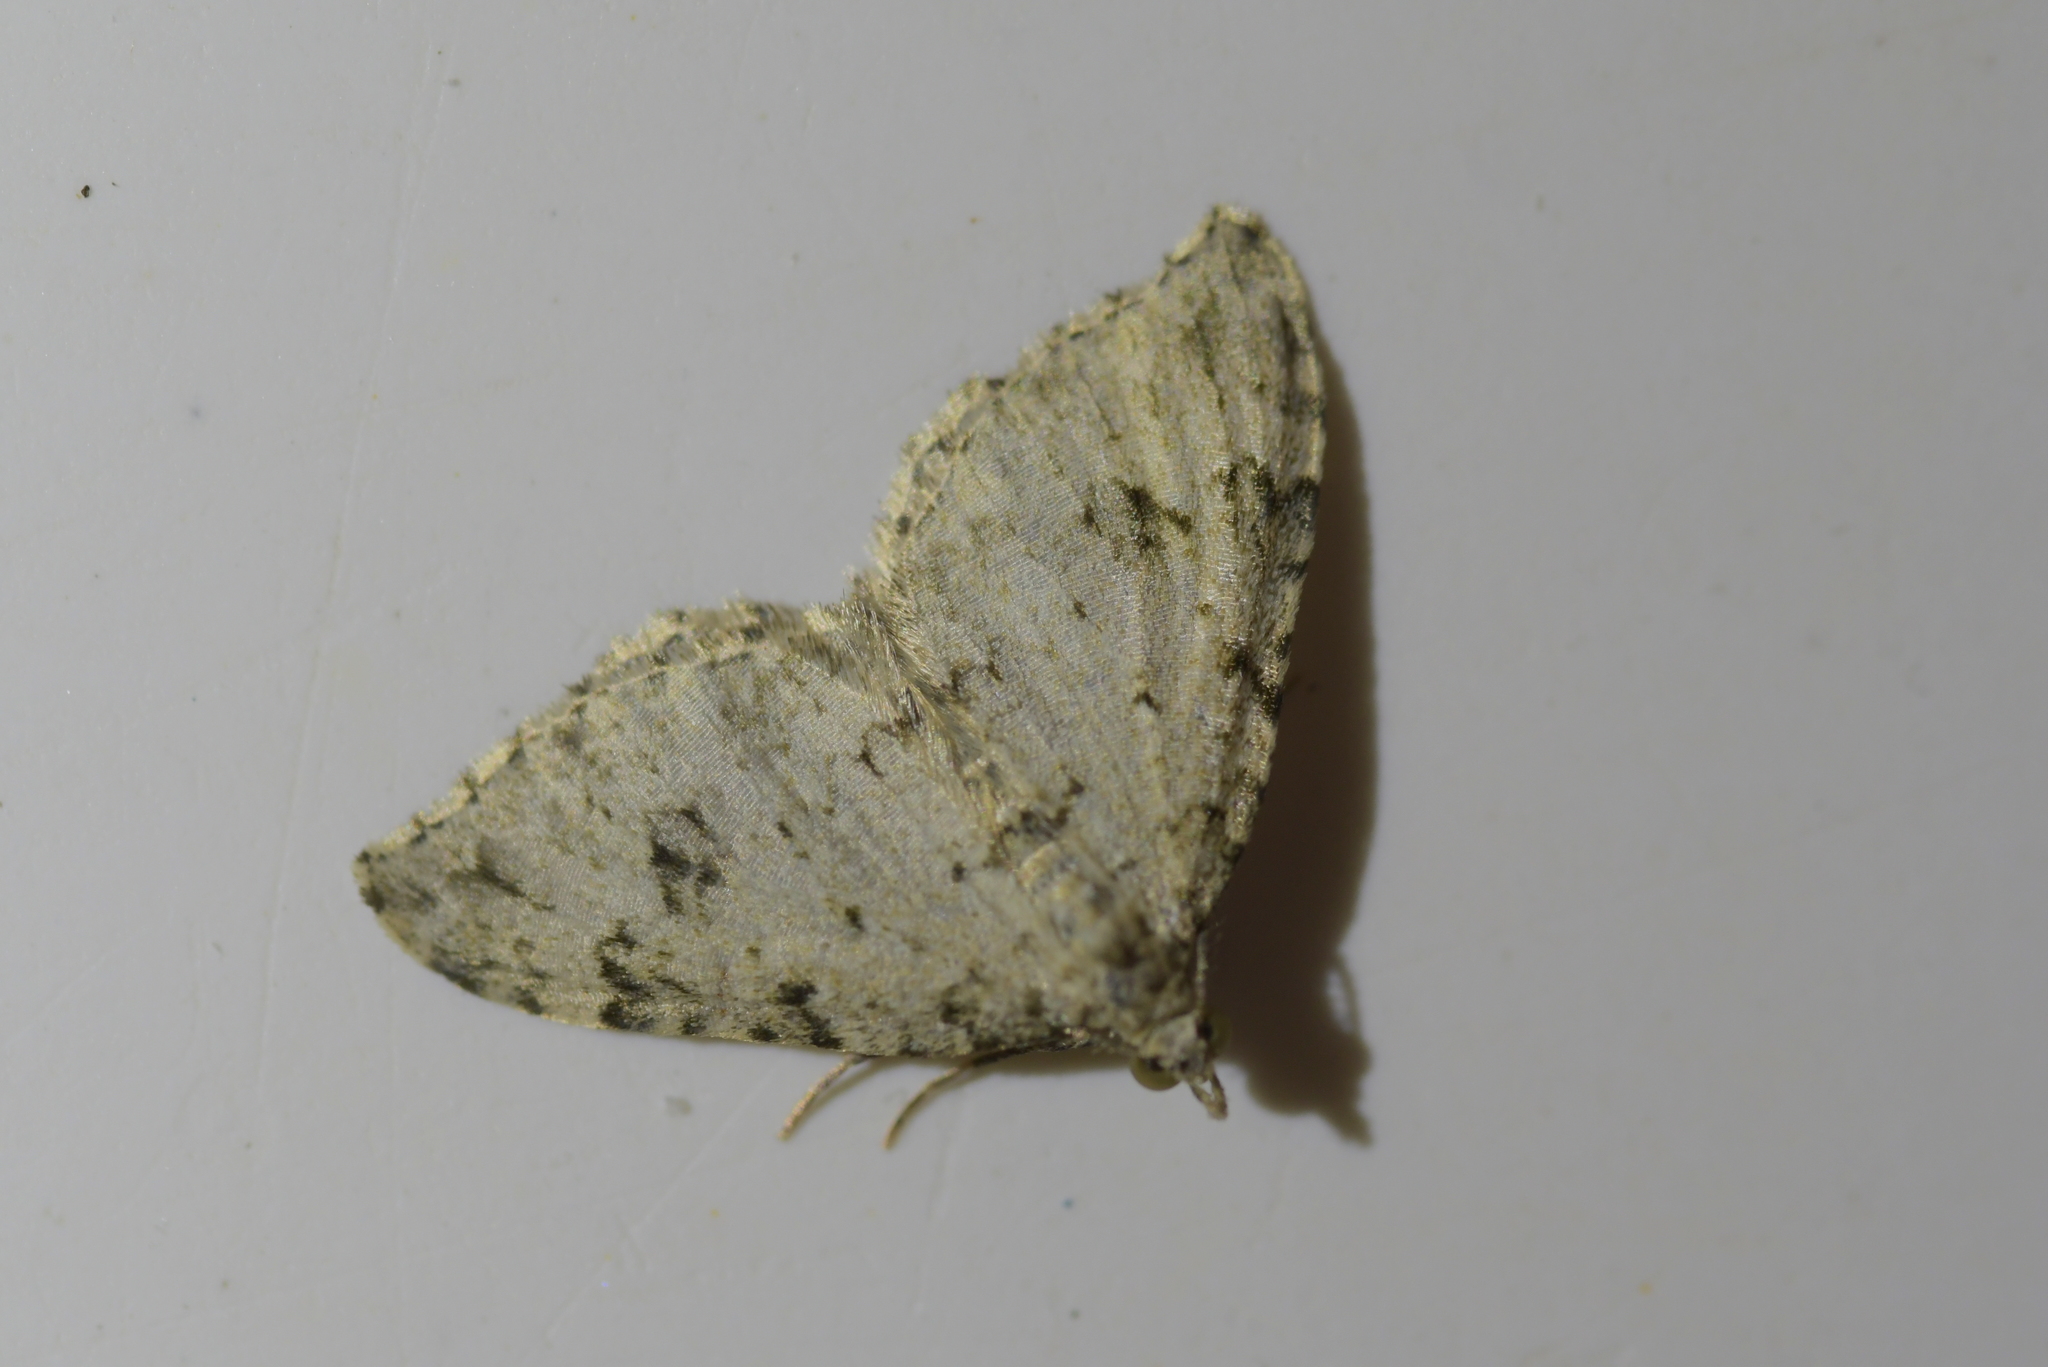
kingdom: Animalia
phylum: Arthropoda
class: Insecta
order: Lepidoptera
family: Geometridae
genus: Helastia
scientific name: Helastia cinerearia
